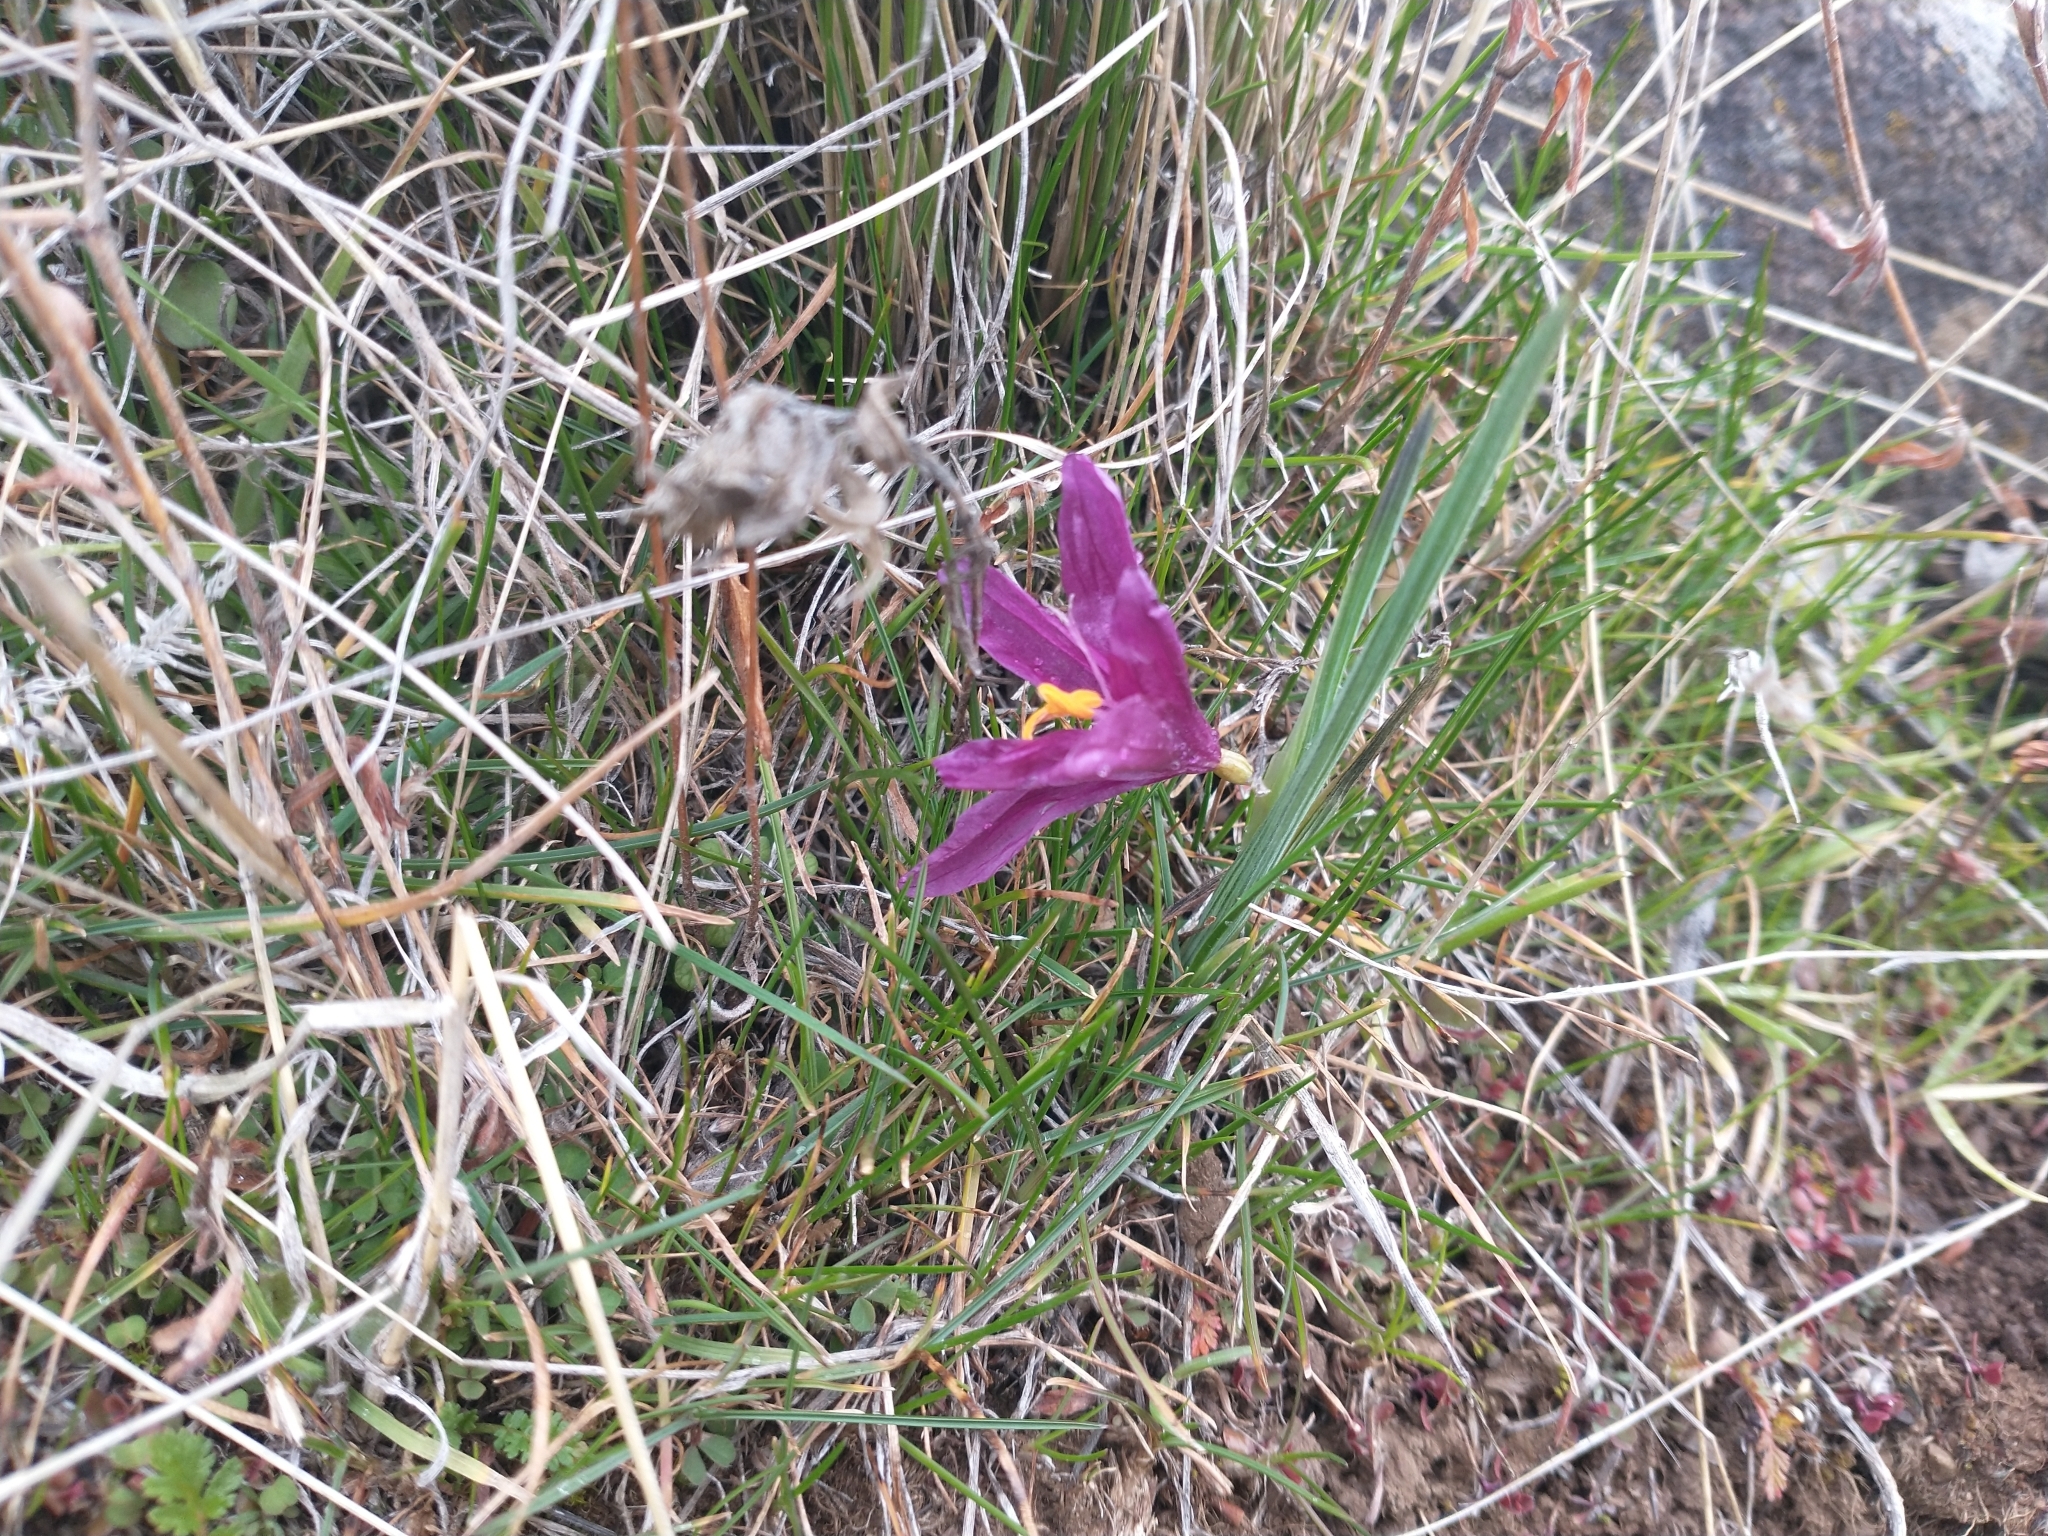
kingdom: Plantae
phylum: Tracheophyta
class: Liliopsida
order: Asparagales
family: Iridaceae
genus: Olsynium
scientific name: Olsynium douglasii
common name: Douglas' grasswidow
